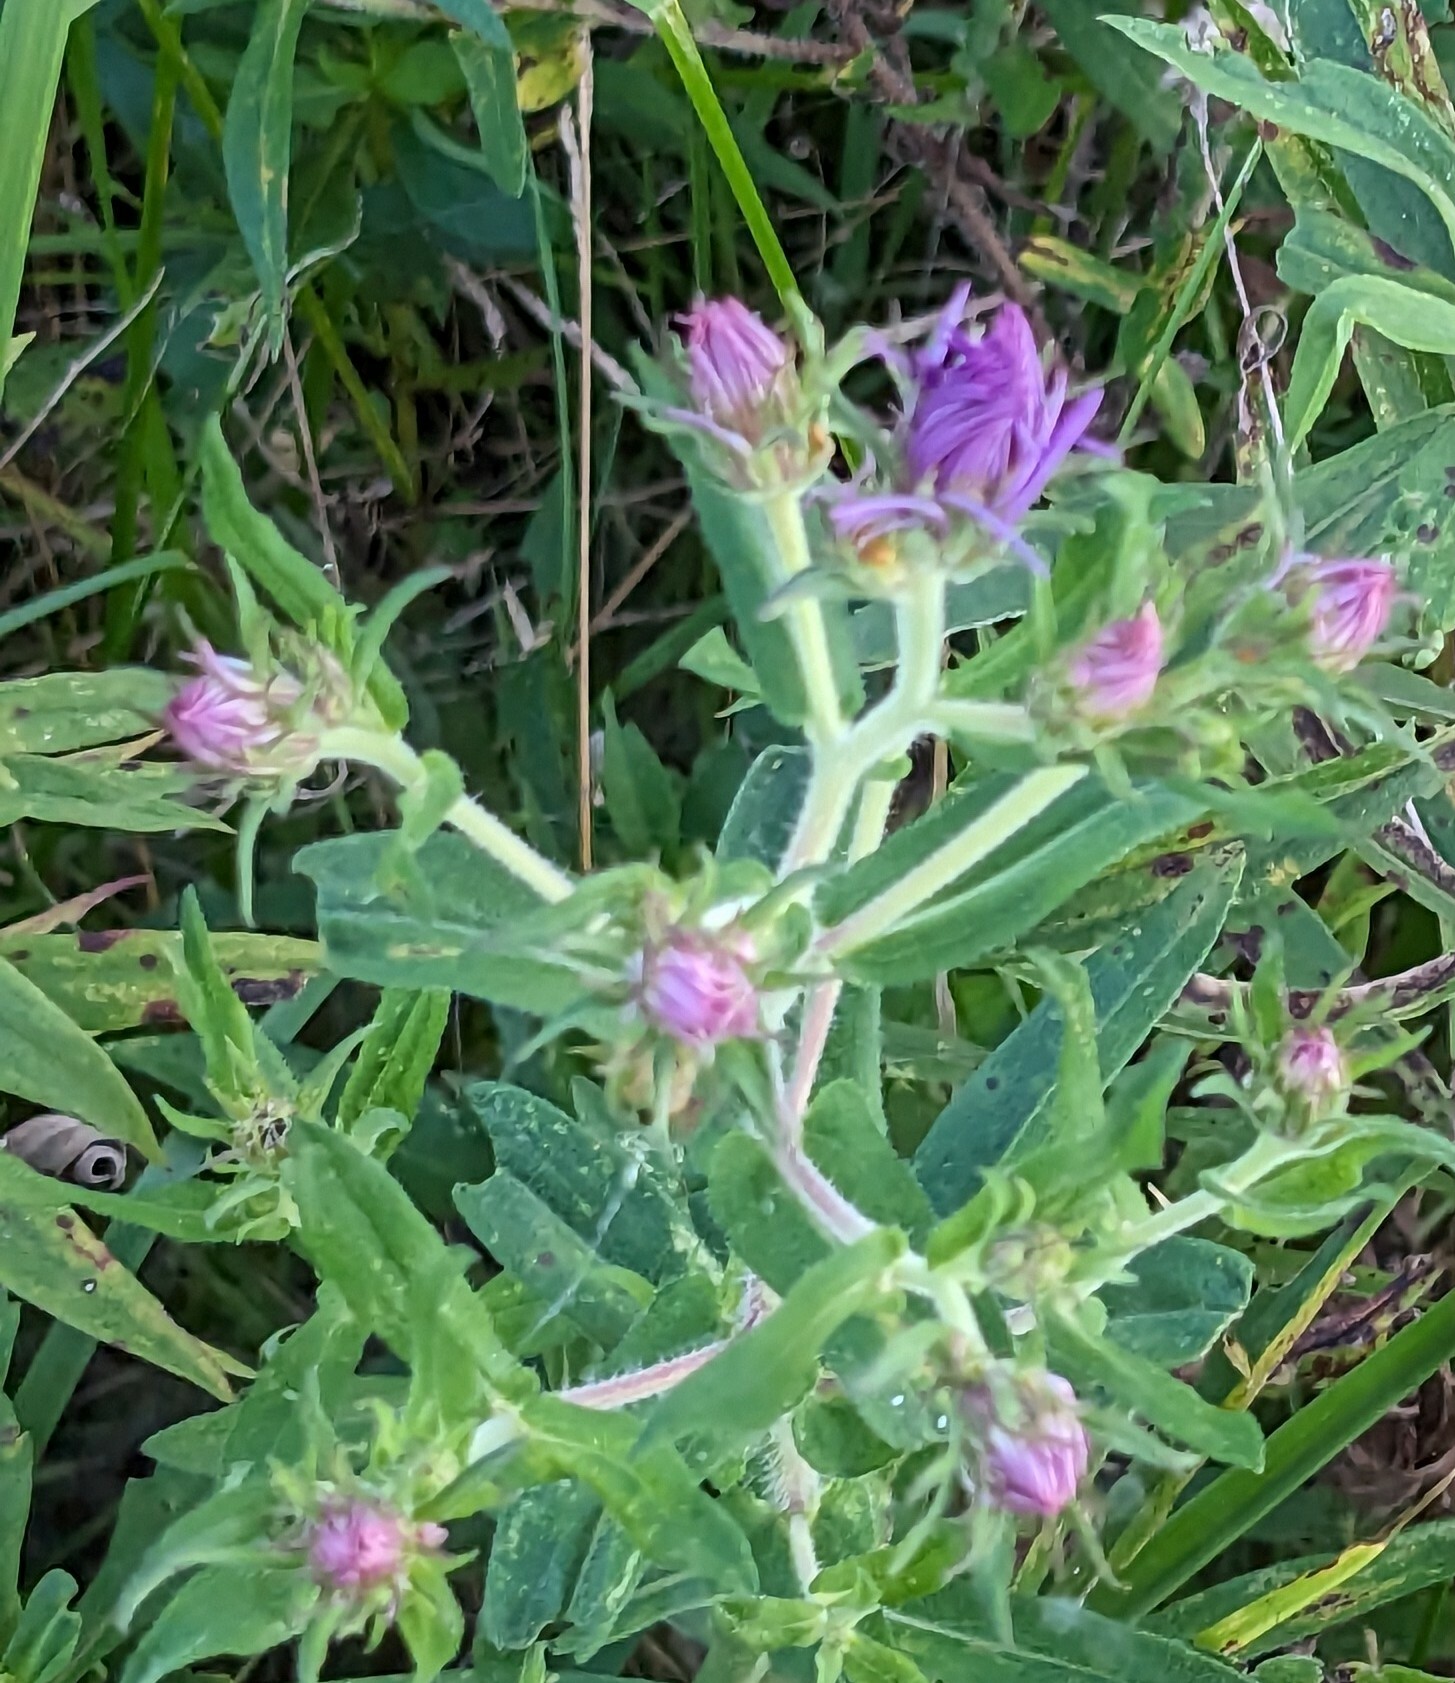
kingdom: Plantae
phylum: Tracheophyta
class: Magnoliopsida
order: Asterales
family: Asteraceae
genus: Symphyotrichum
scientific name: Symphyotrichum novae-angliae
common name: Michaelmas daisy
